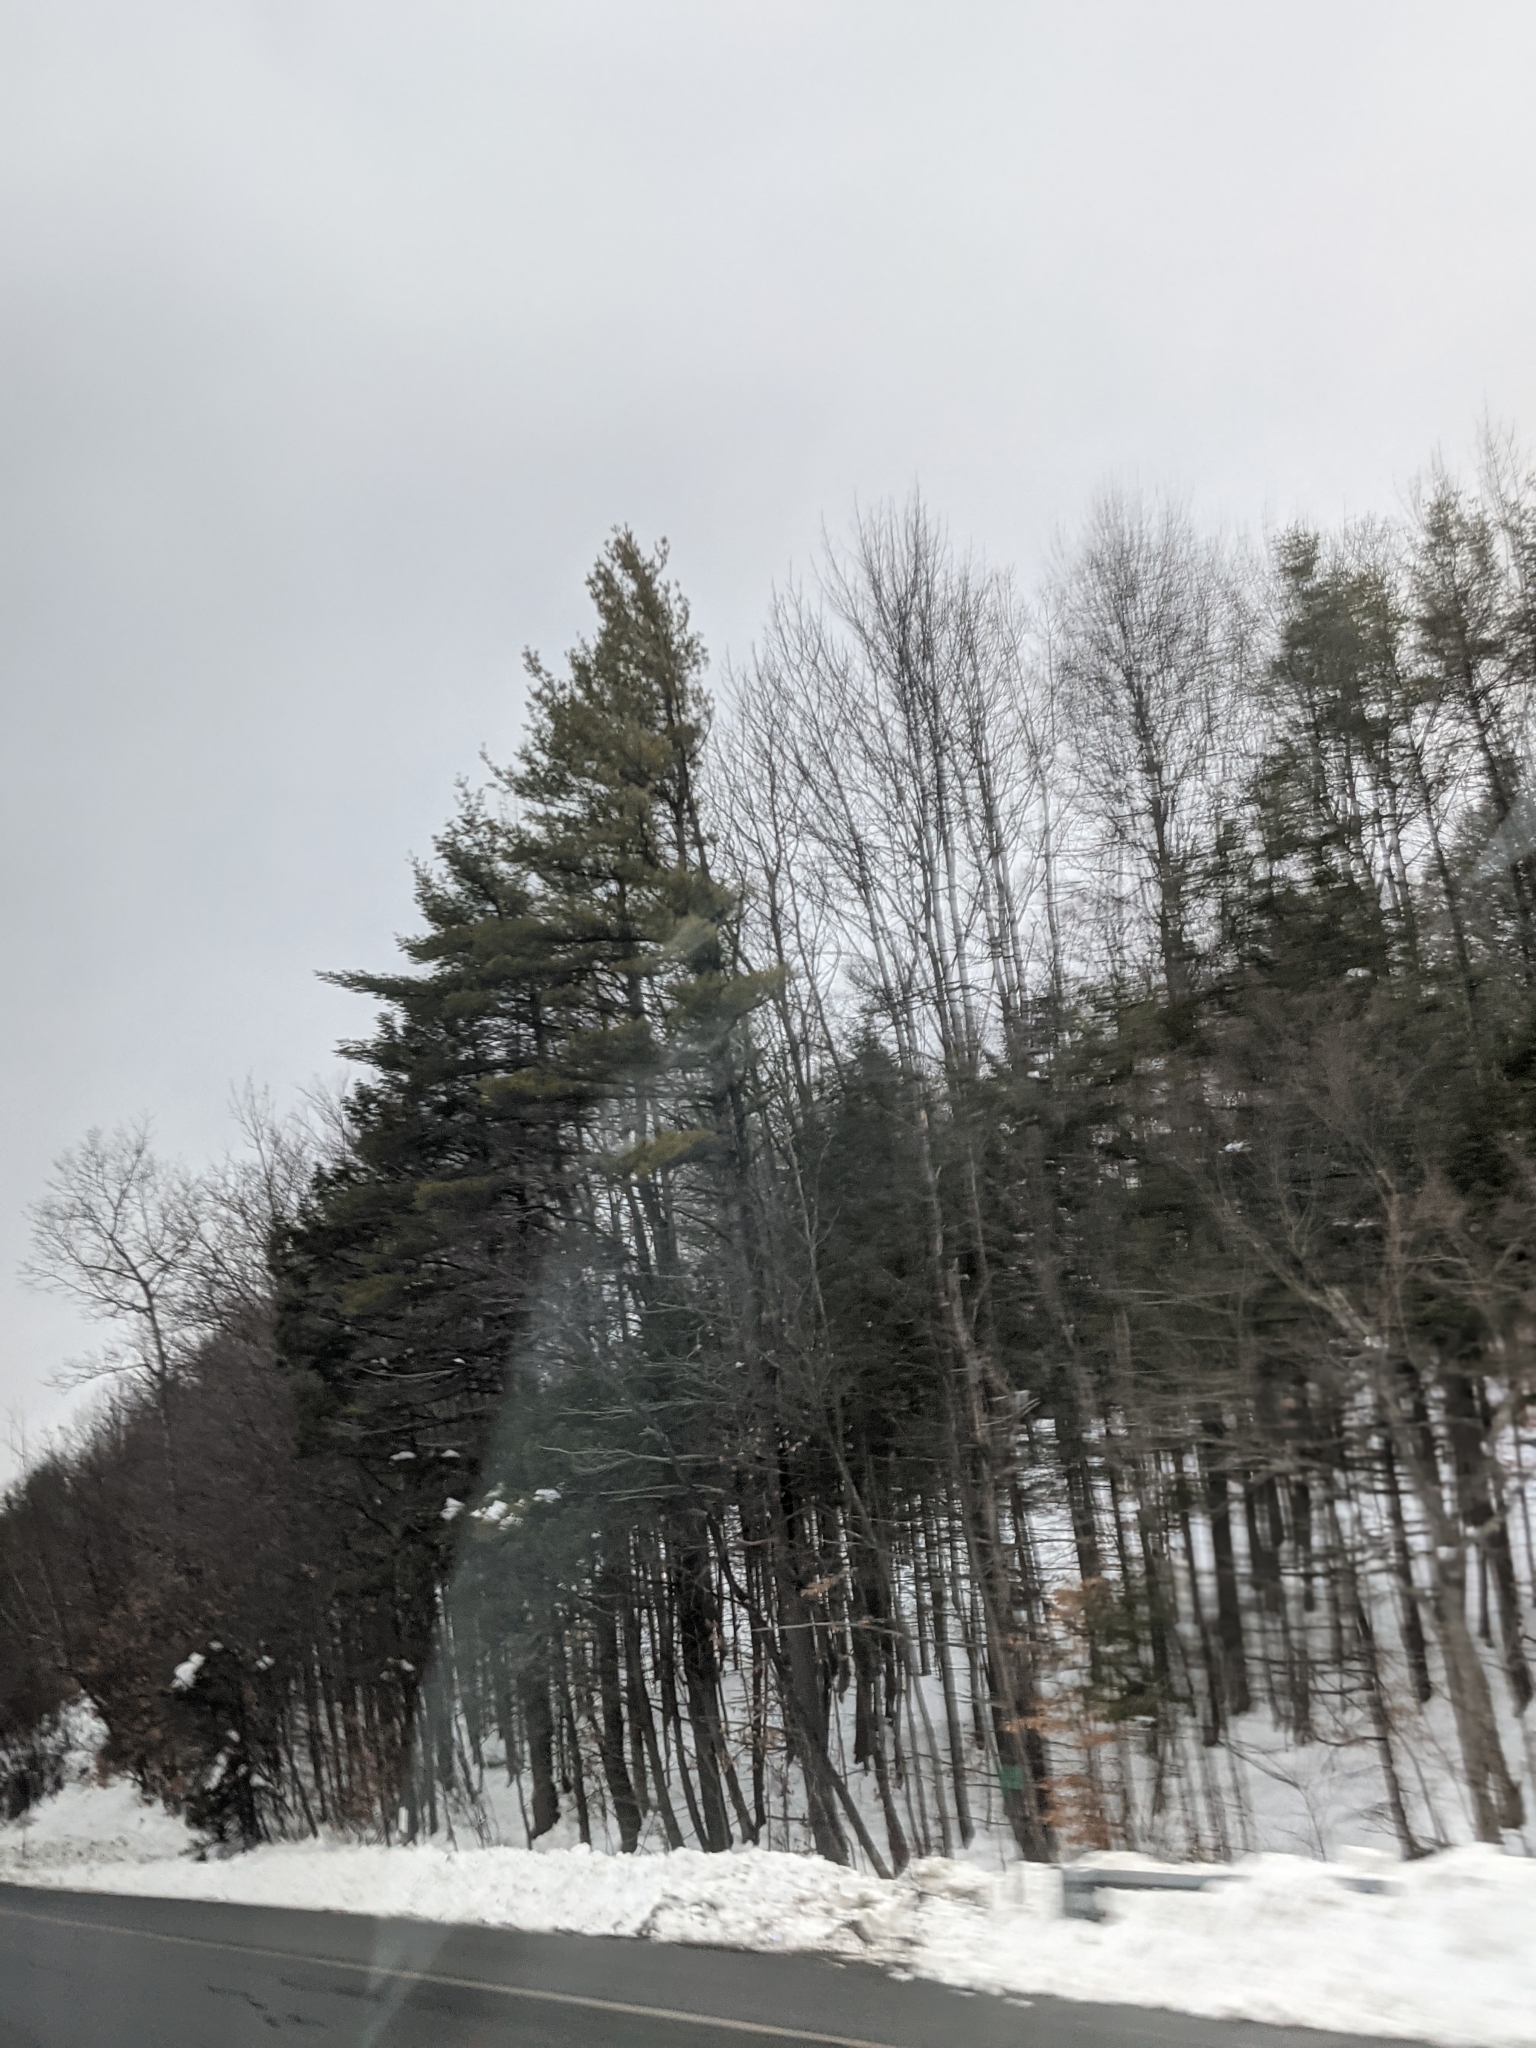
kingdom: Plantae
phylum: Tracheophyta
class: Pinopsida
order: Pinales
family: Pinaceae
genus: Pinus
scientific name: Pinus strobus
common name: Weymouth pine
